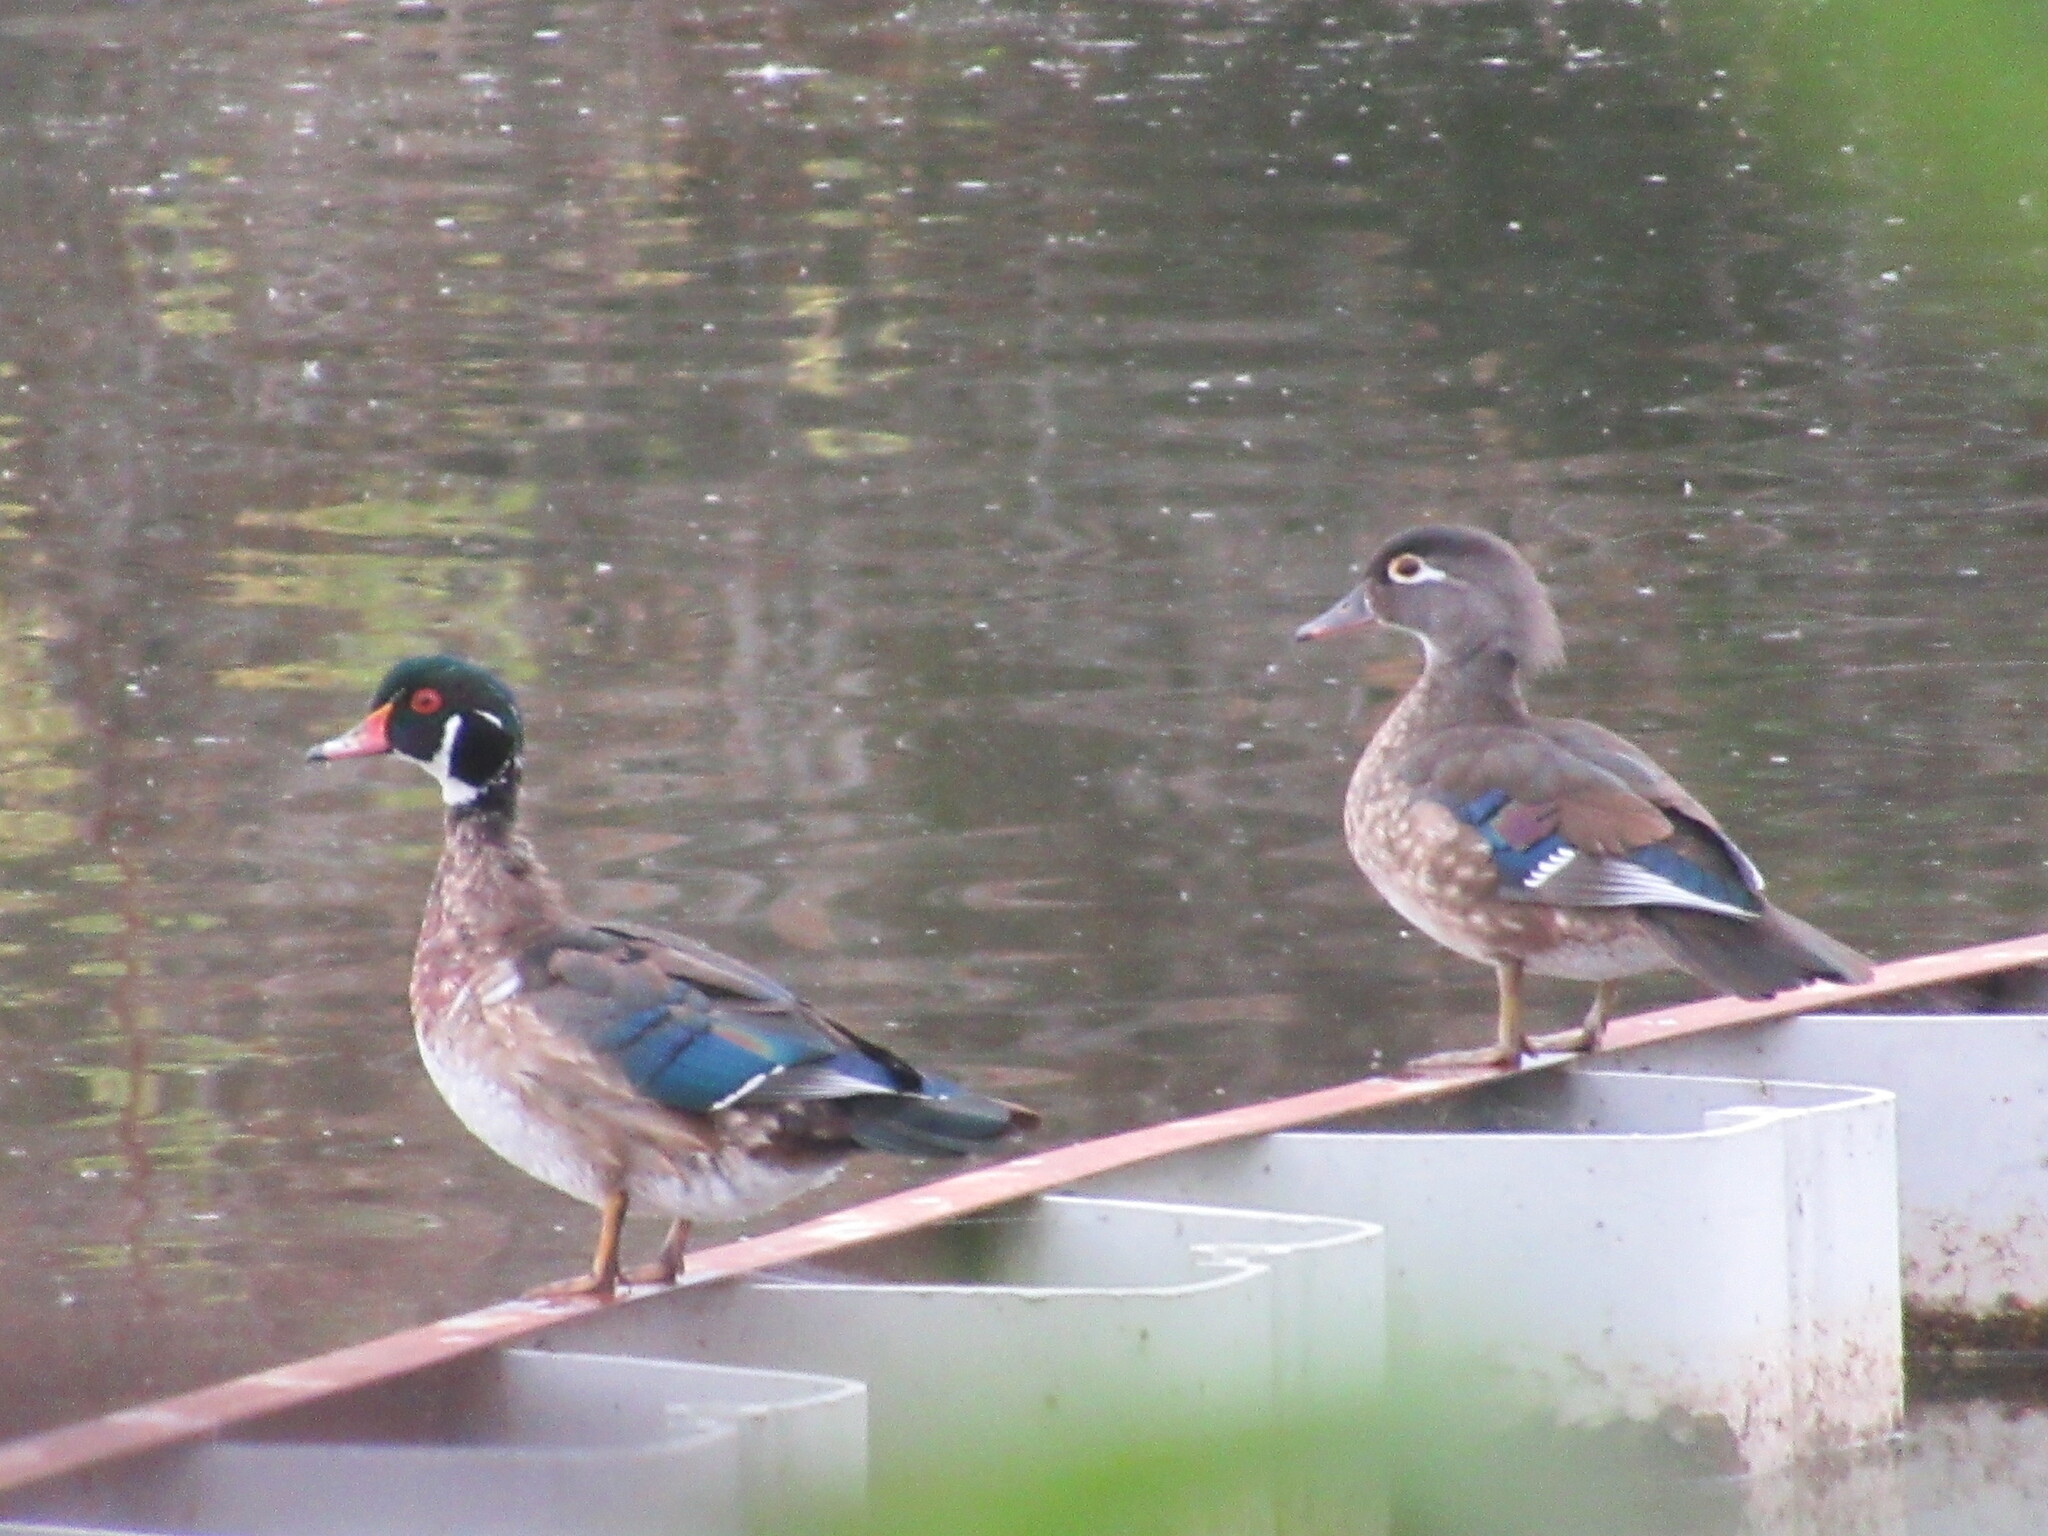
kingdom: Animalia
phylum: Chordata
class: Aves
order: Anseriformes
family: Anatidae
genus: Aix
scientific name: Aix sponsa
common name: Wood duck
